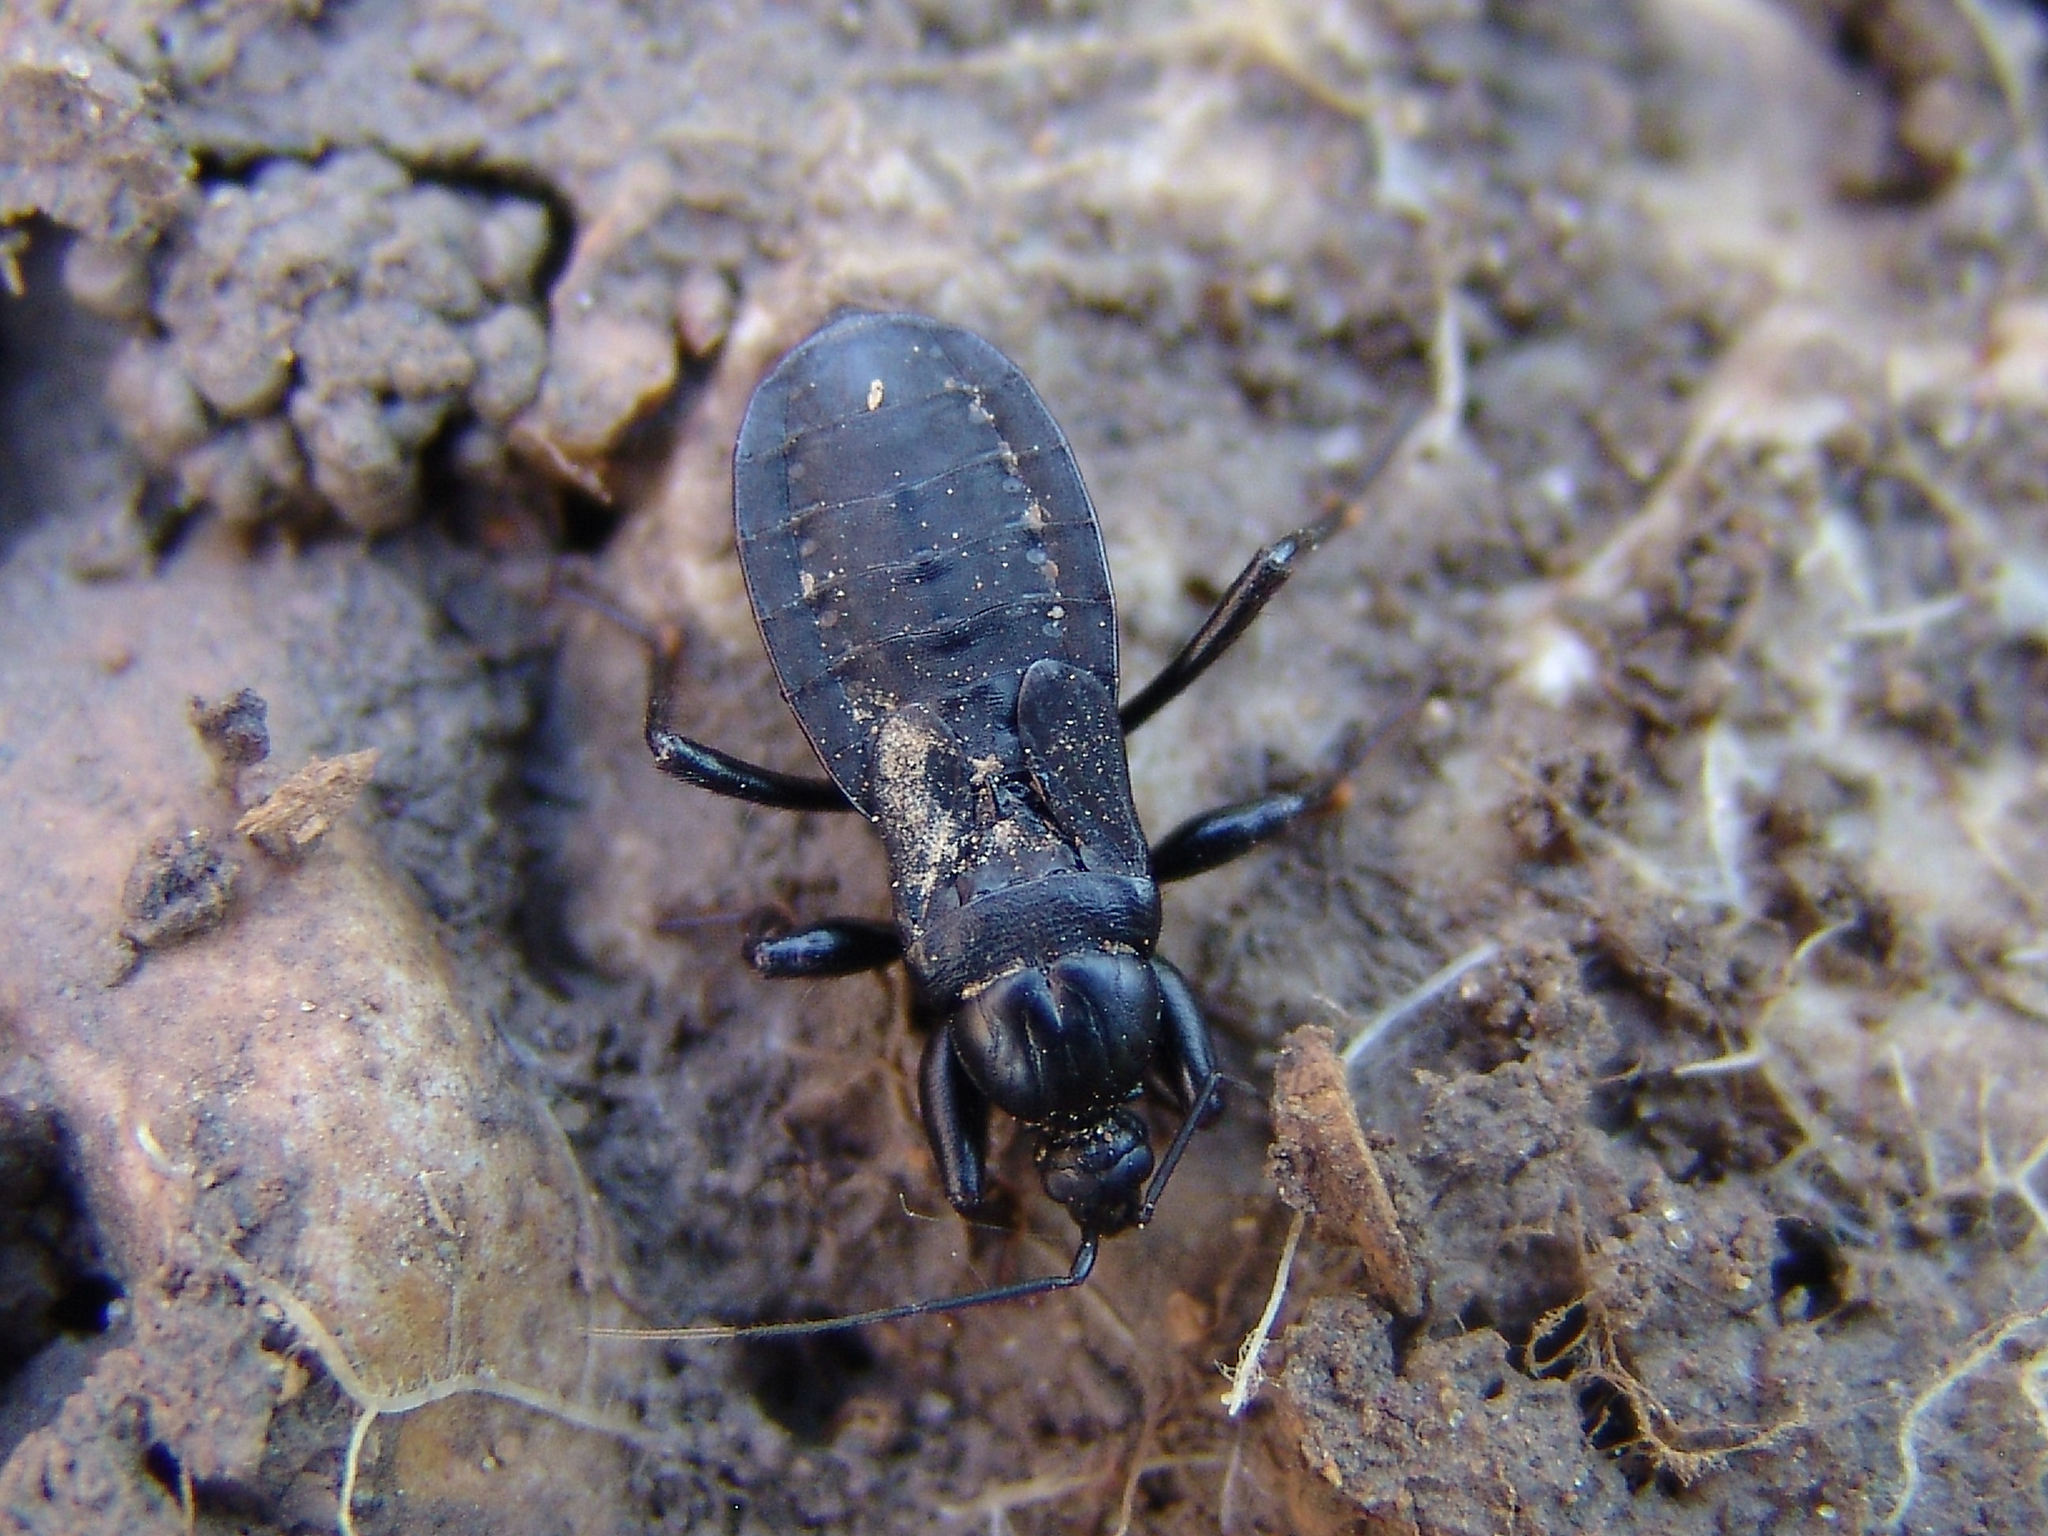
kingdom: Animalia
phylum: Arthropoda
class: Insecta
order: Hemiptera
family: Reduviidae
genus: Melanolestes
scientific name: Melanolestes picipes
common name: Assassin bug
